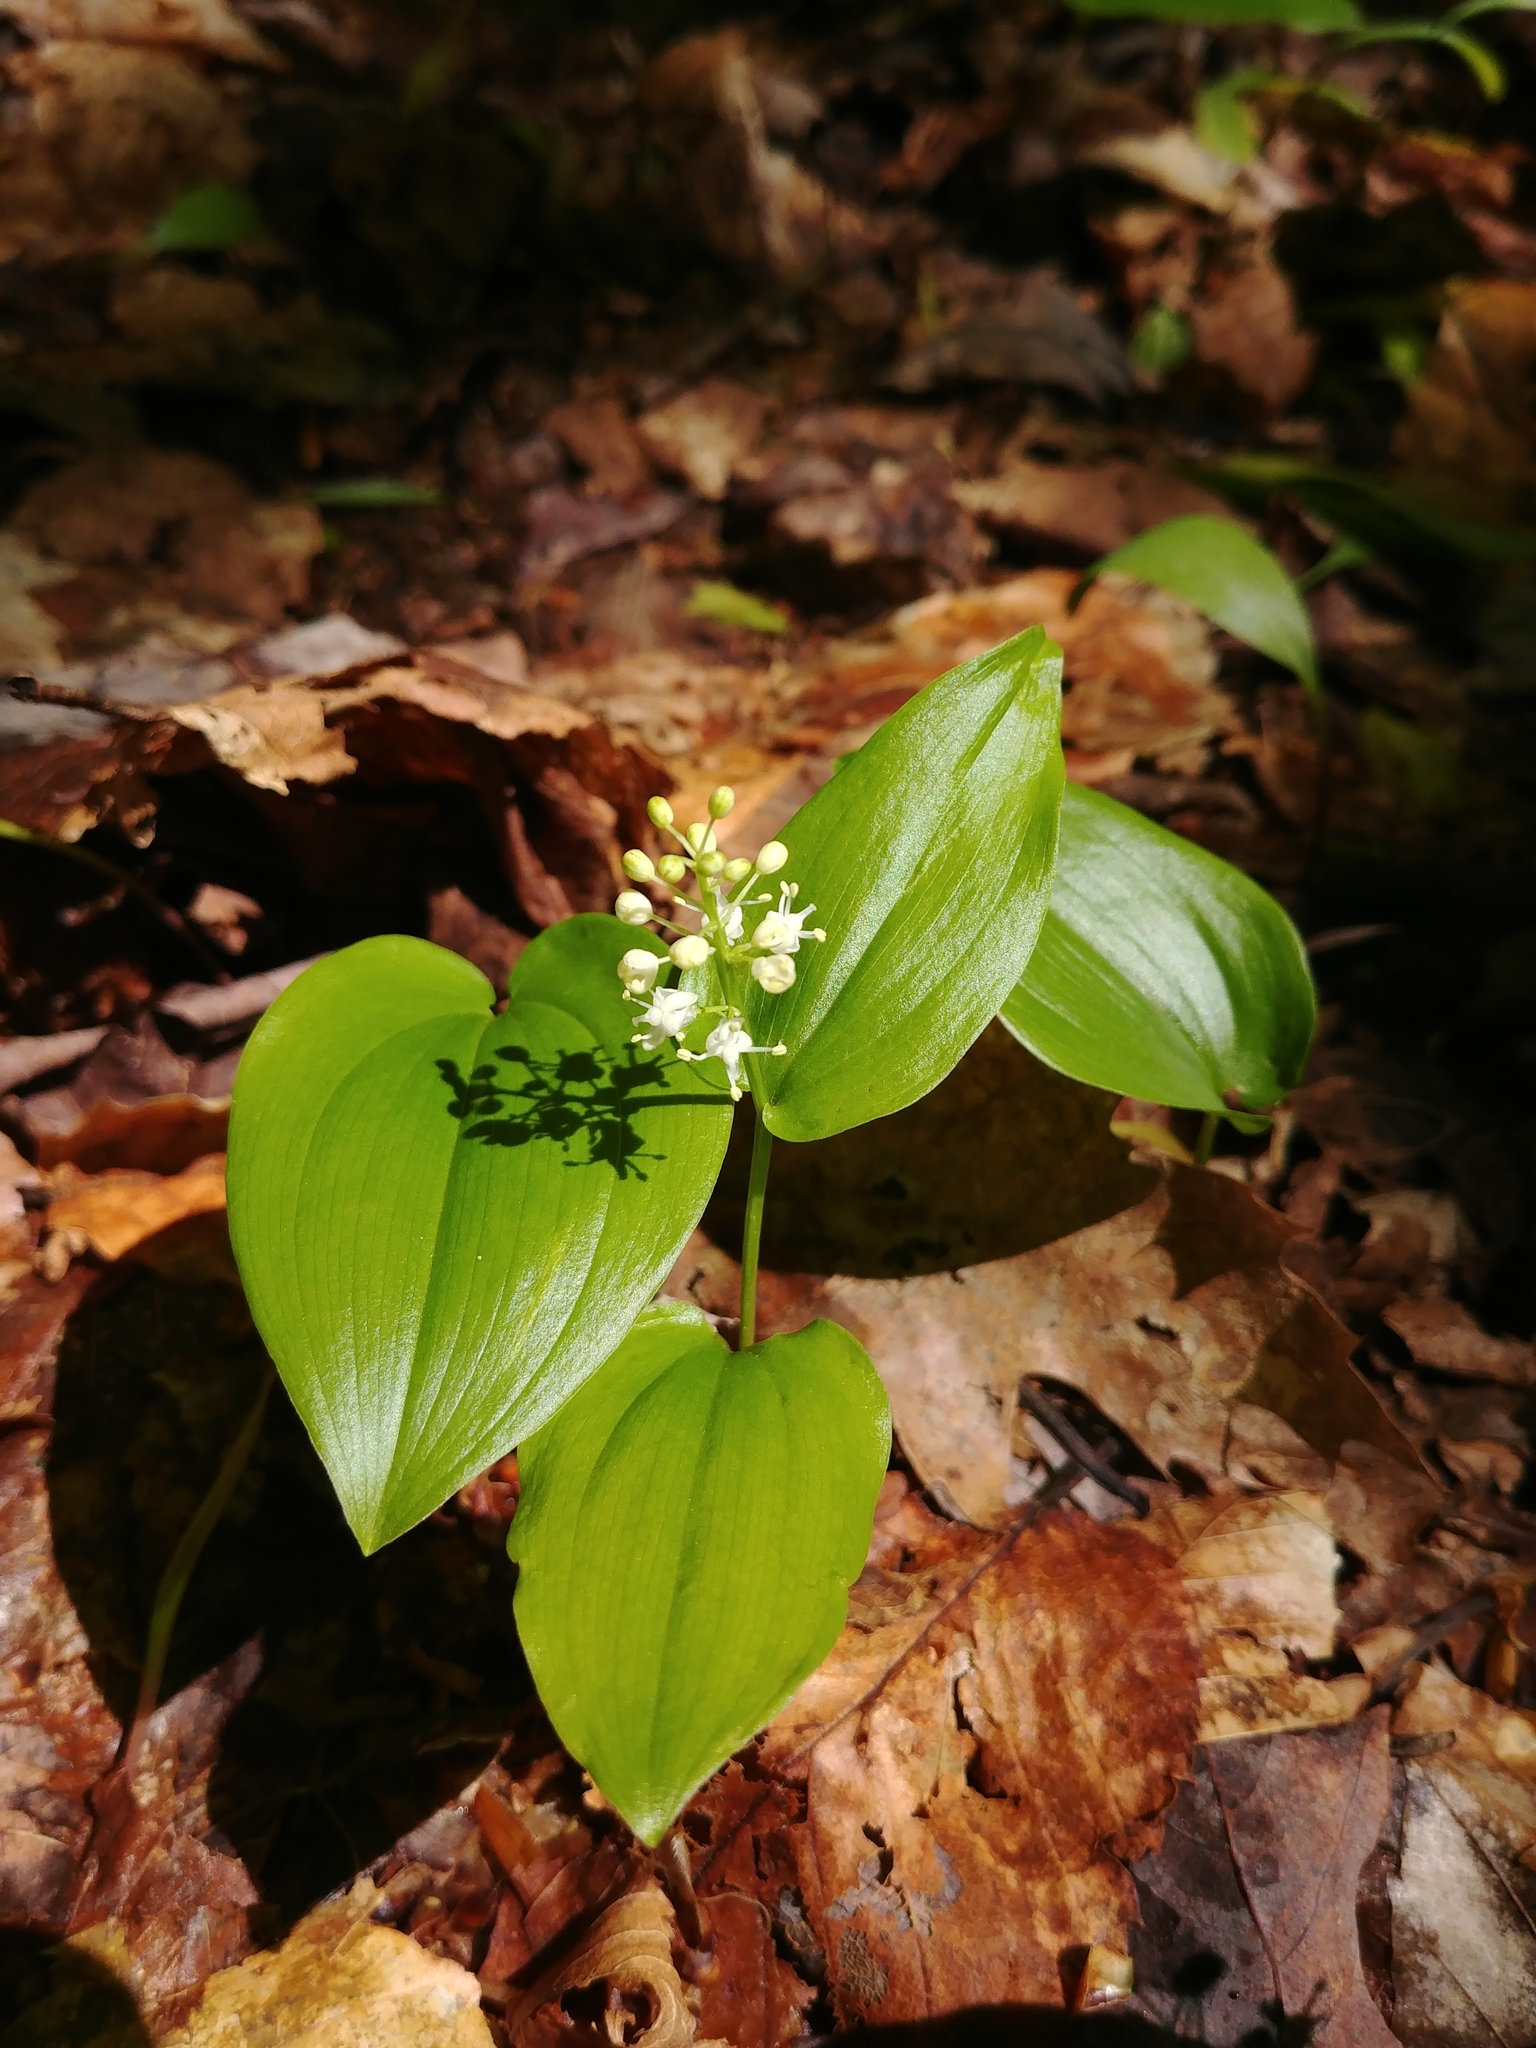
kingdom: Plantae
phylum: Tracheophyta
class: Liliopsida
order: Asparagales
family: Asparagaceae
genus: Maianthemum
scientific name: Maianthemum canadense
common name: False lily-of-the-valley
